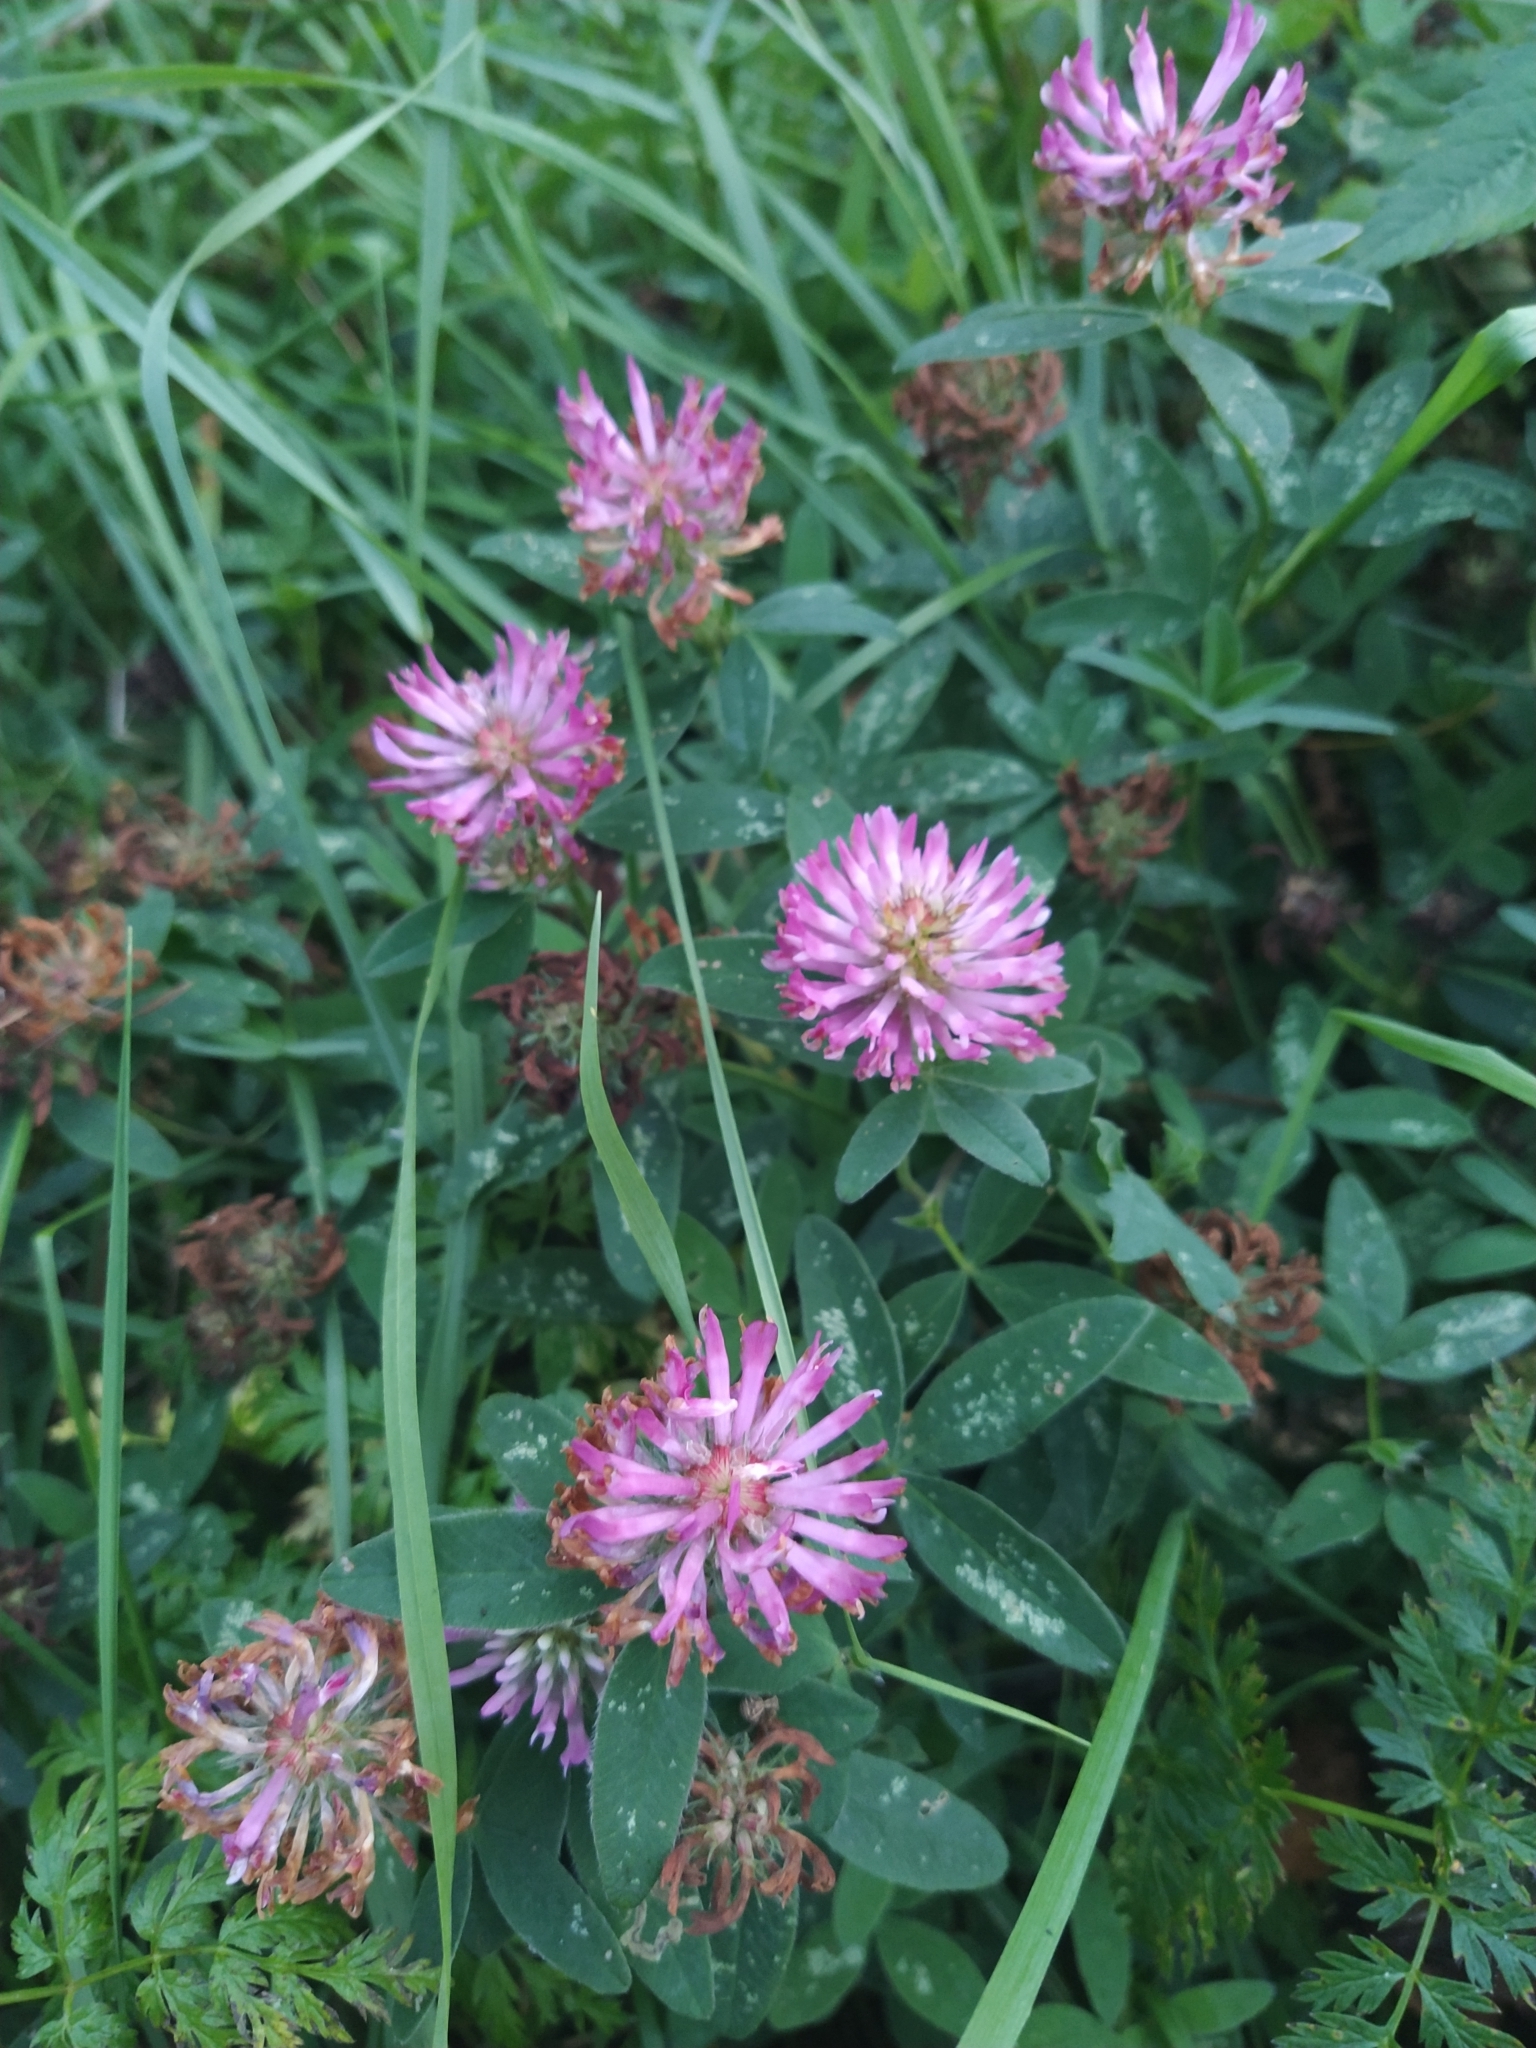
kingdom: Plantae
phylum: Tracheophyta
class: Magnoliopsida
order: Fabales
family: Fabaceae
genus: Trifolium
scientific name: Trifolium medium
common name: Zigzag clover
